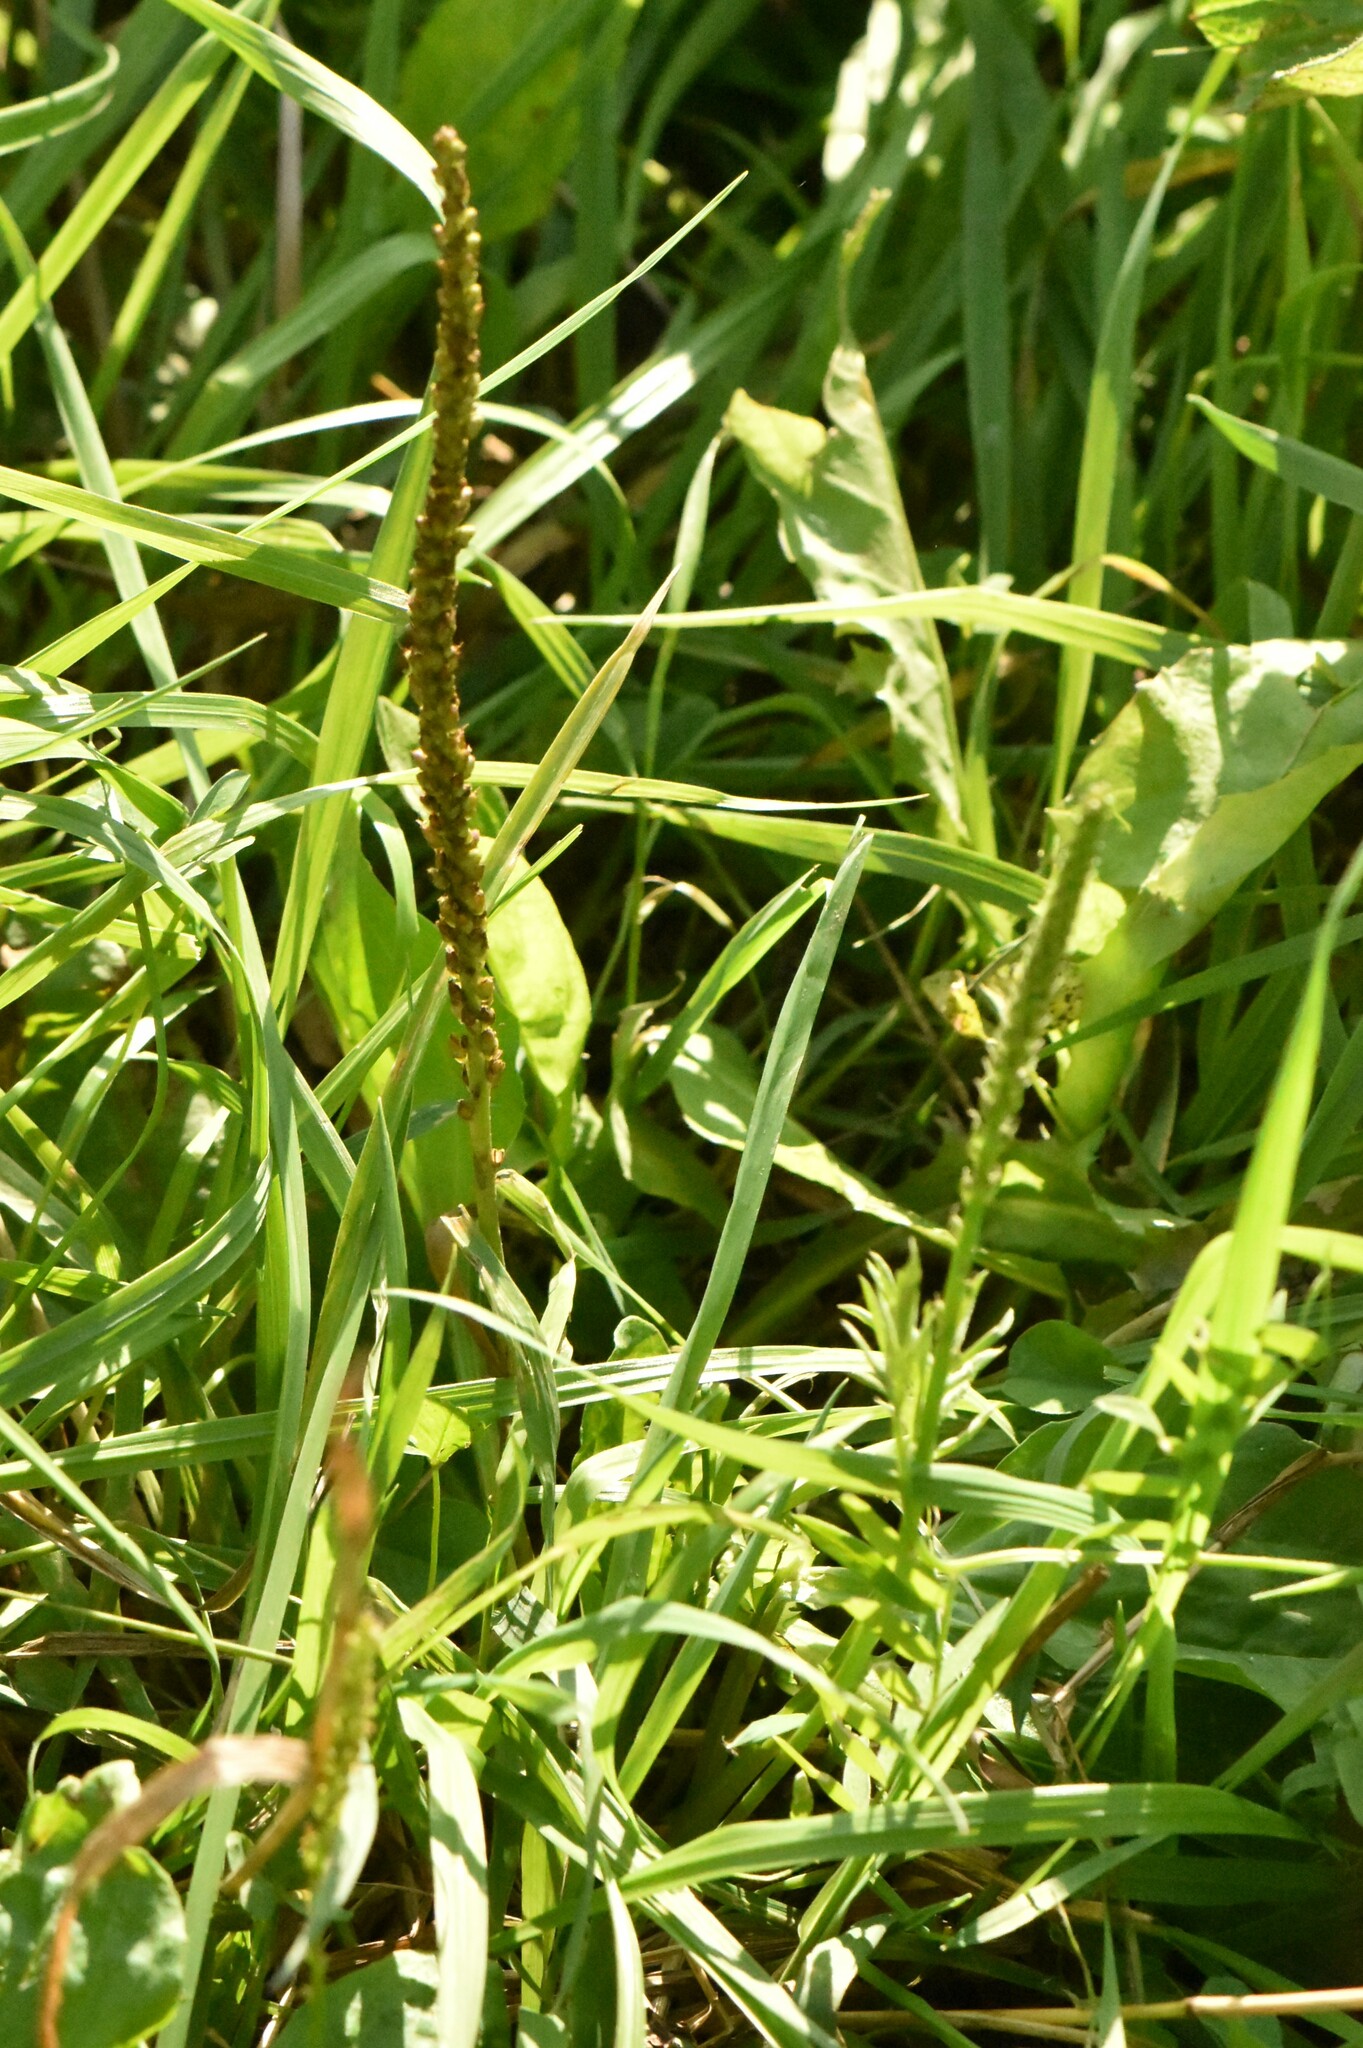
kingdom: Plantae
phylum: Tracheophyta
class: Magnoliopsida
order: Lamiales
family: Plantaginaceae
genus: Plantago
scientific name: Plantago major
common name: Common plantain
